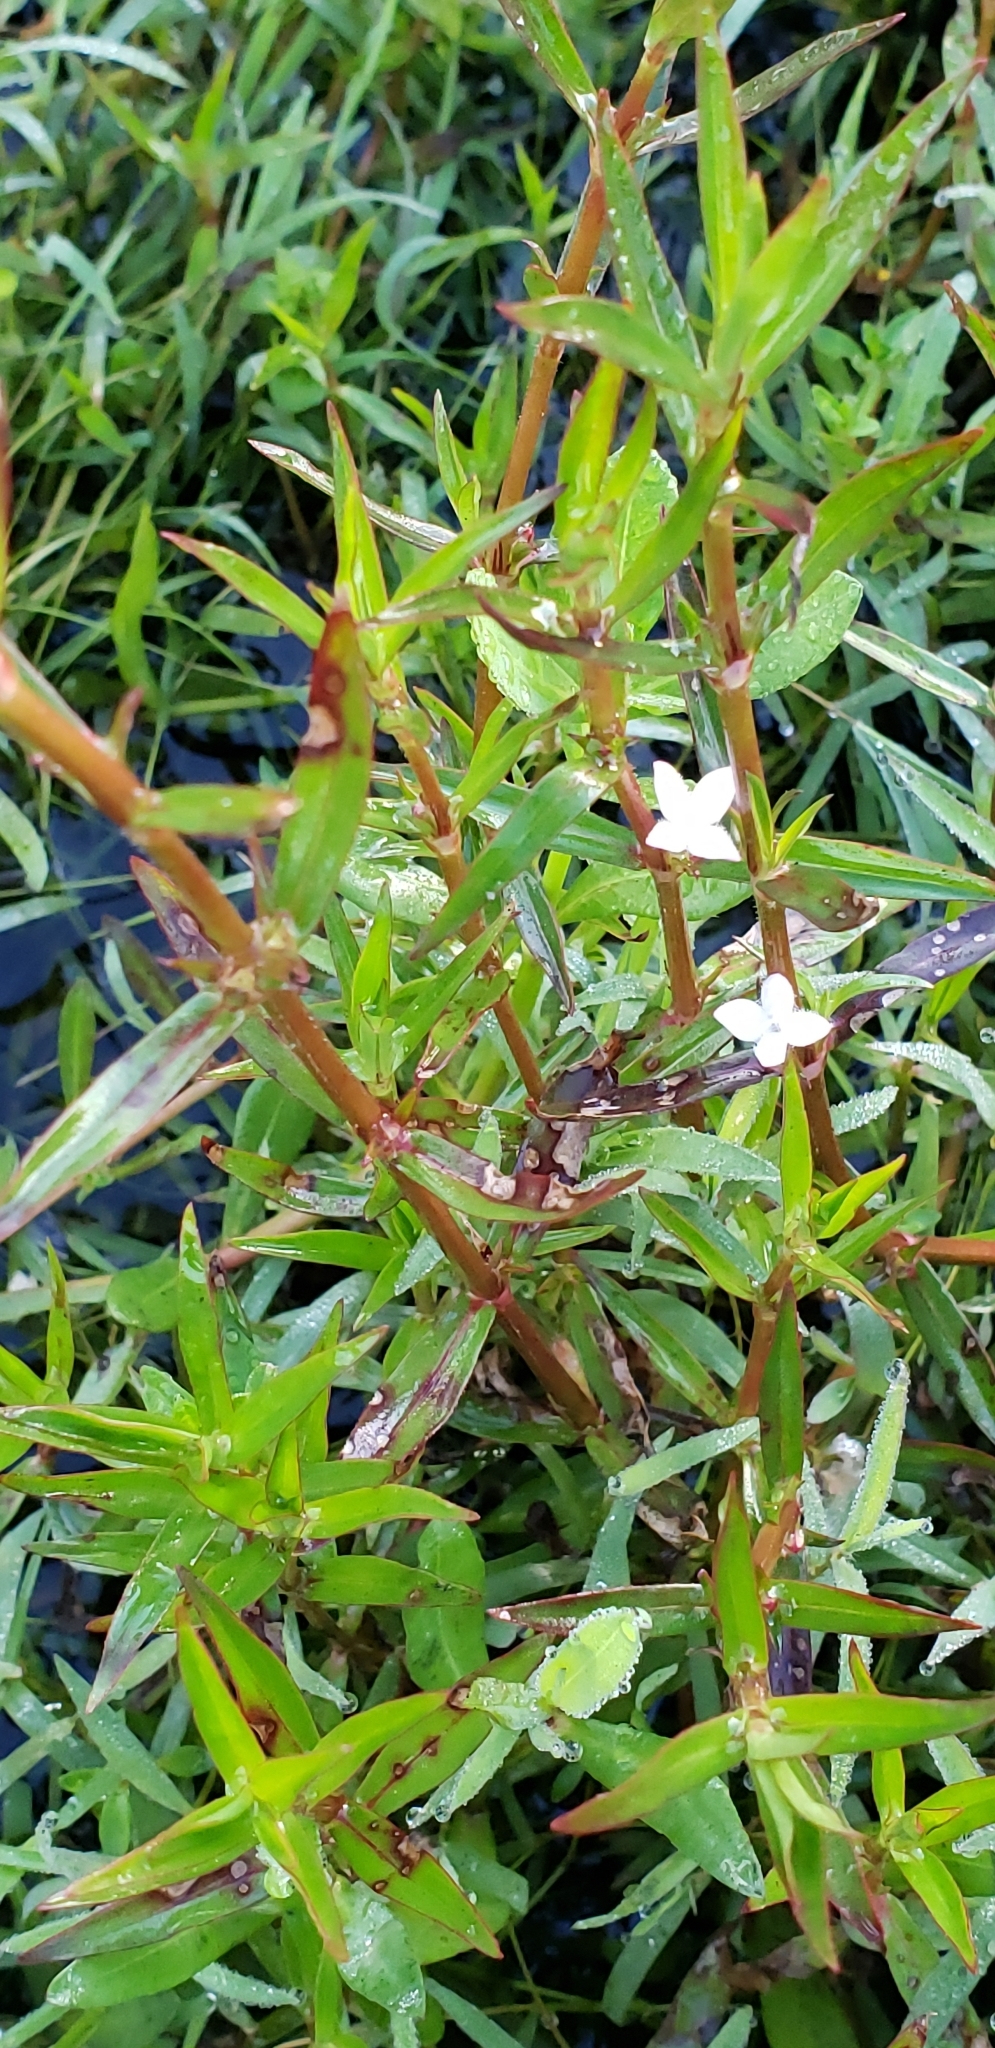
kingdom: Plantae
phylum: Tracheophyta
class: Magnoliopsida
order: Gentianales
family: Rubiaceae
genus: Diodia
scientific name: Diodia virginiana
